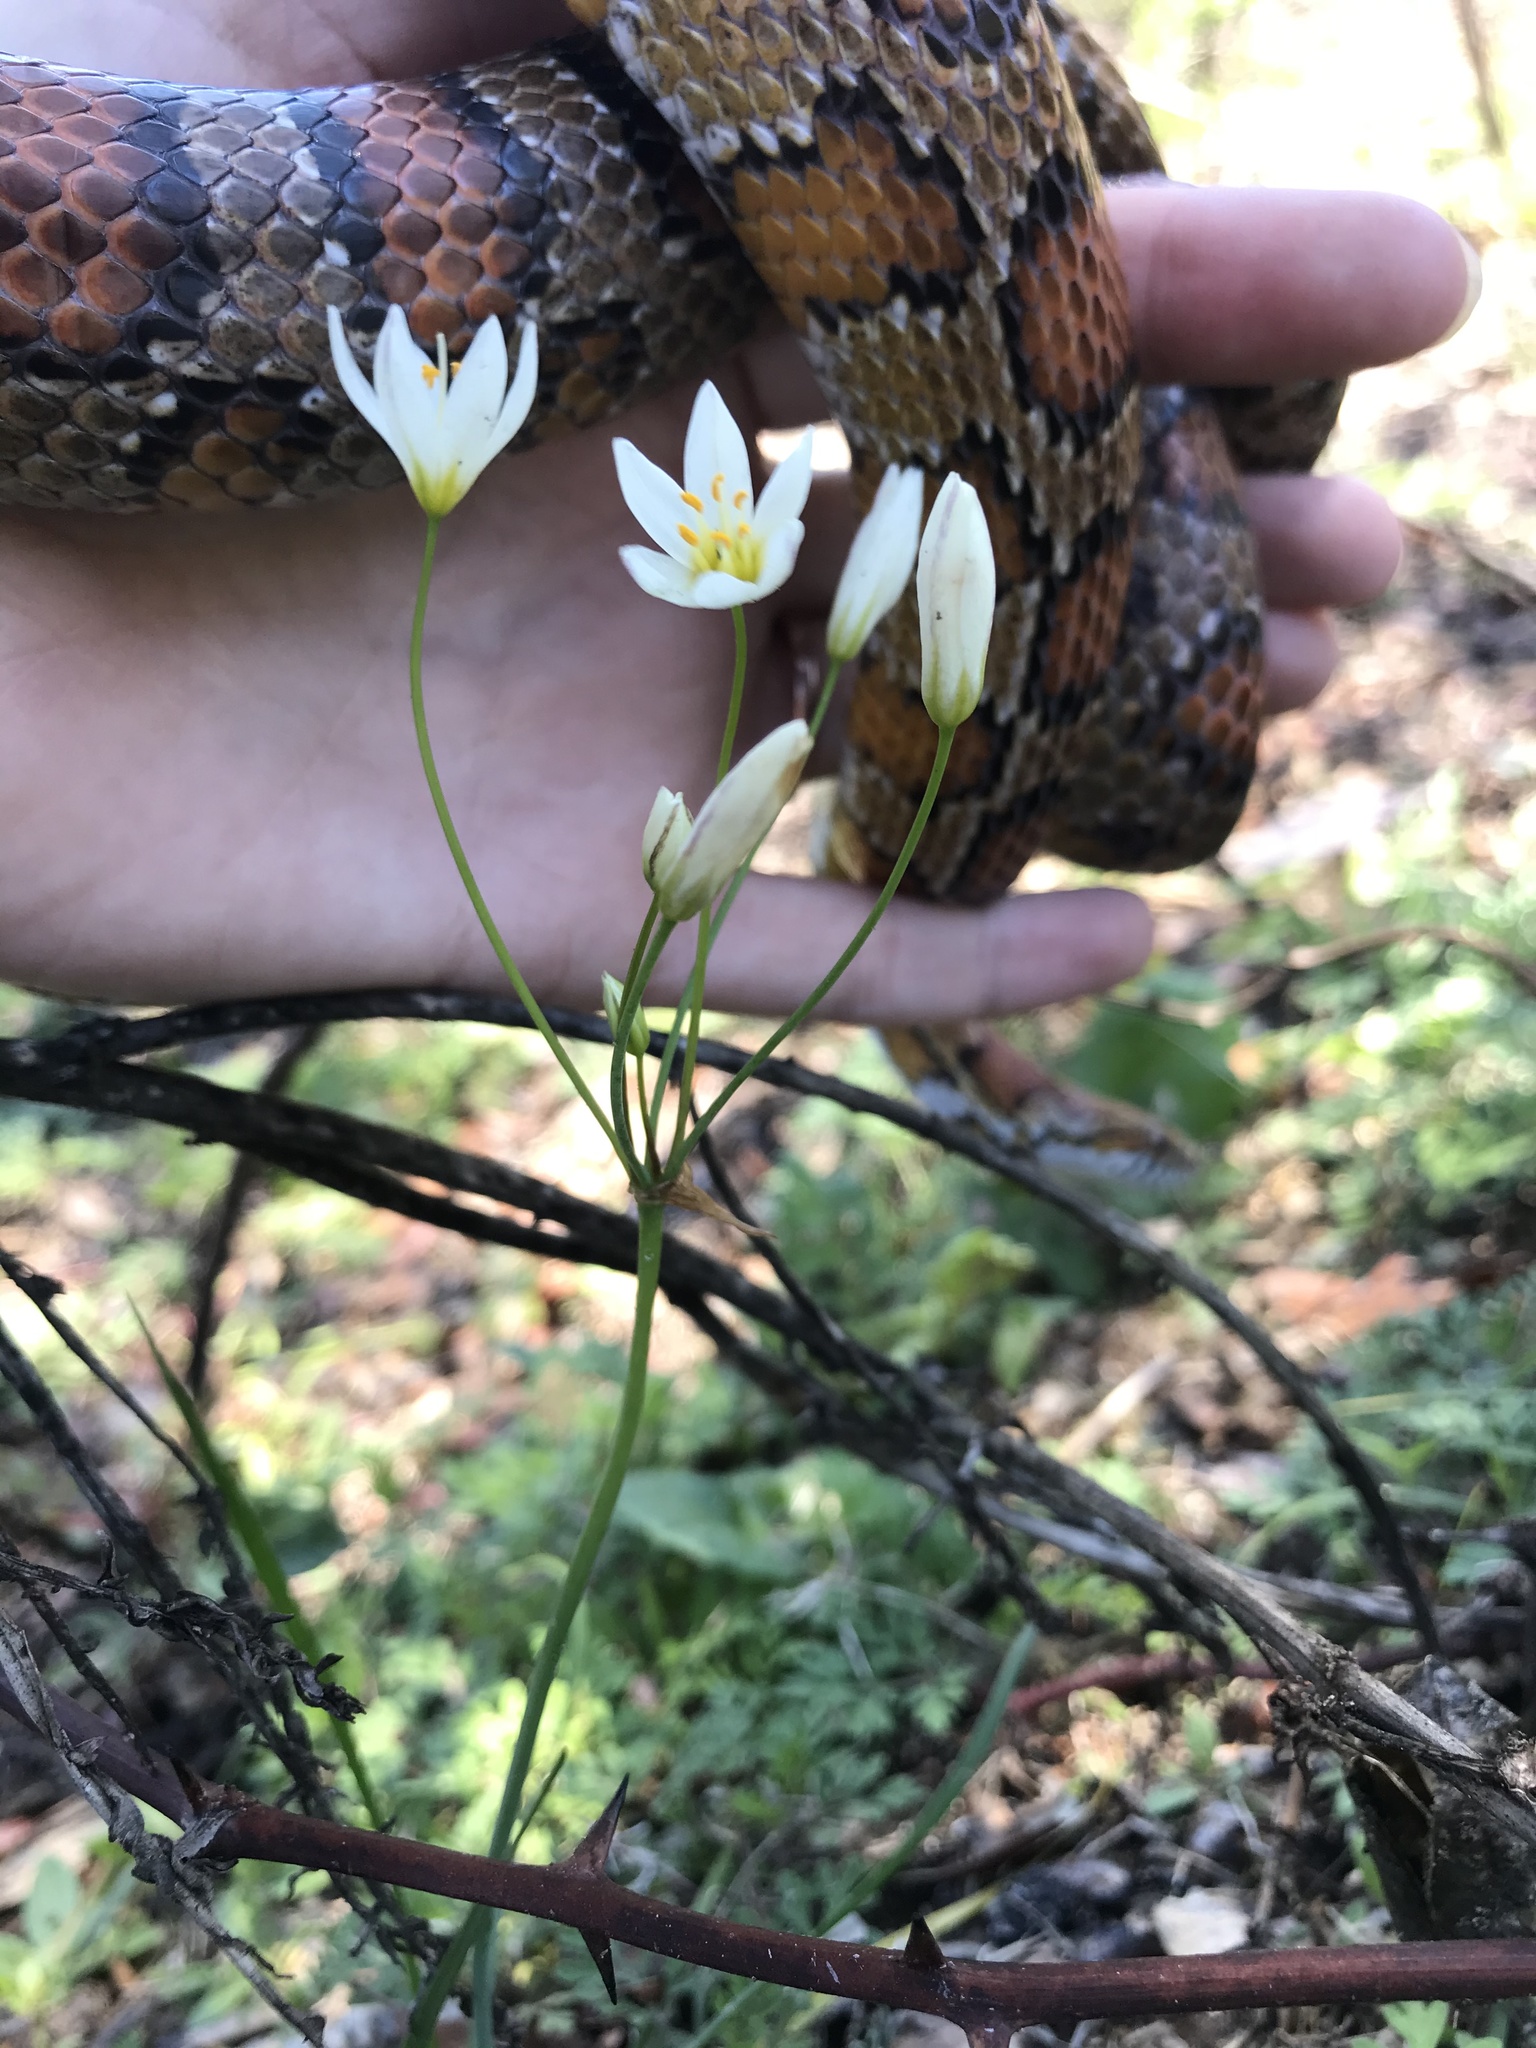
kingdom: Plantae
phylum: Tracheophyta
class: Liliopsida
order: Asparagales
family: Amaryllidaceae
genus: Nothoscordum
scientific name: Nothoscordum bivalve
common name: Crow-poison
